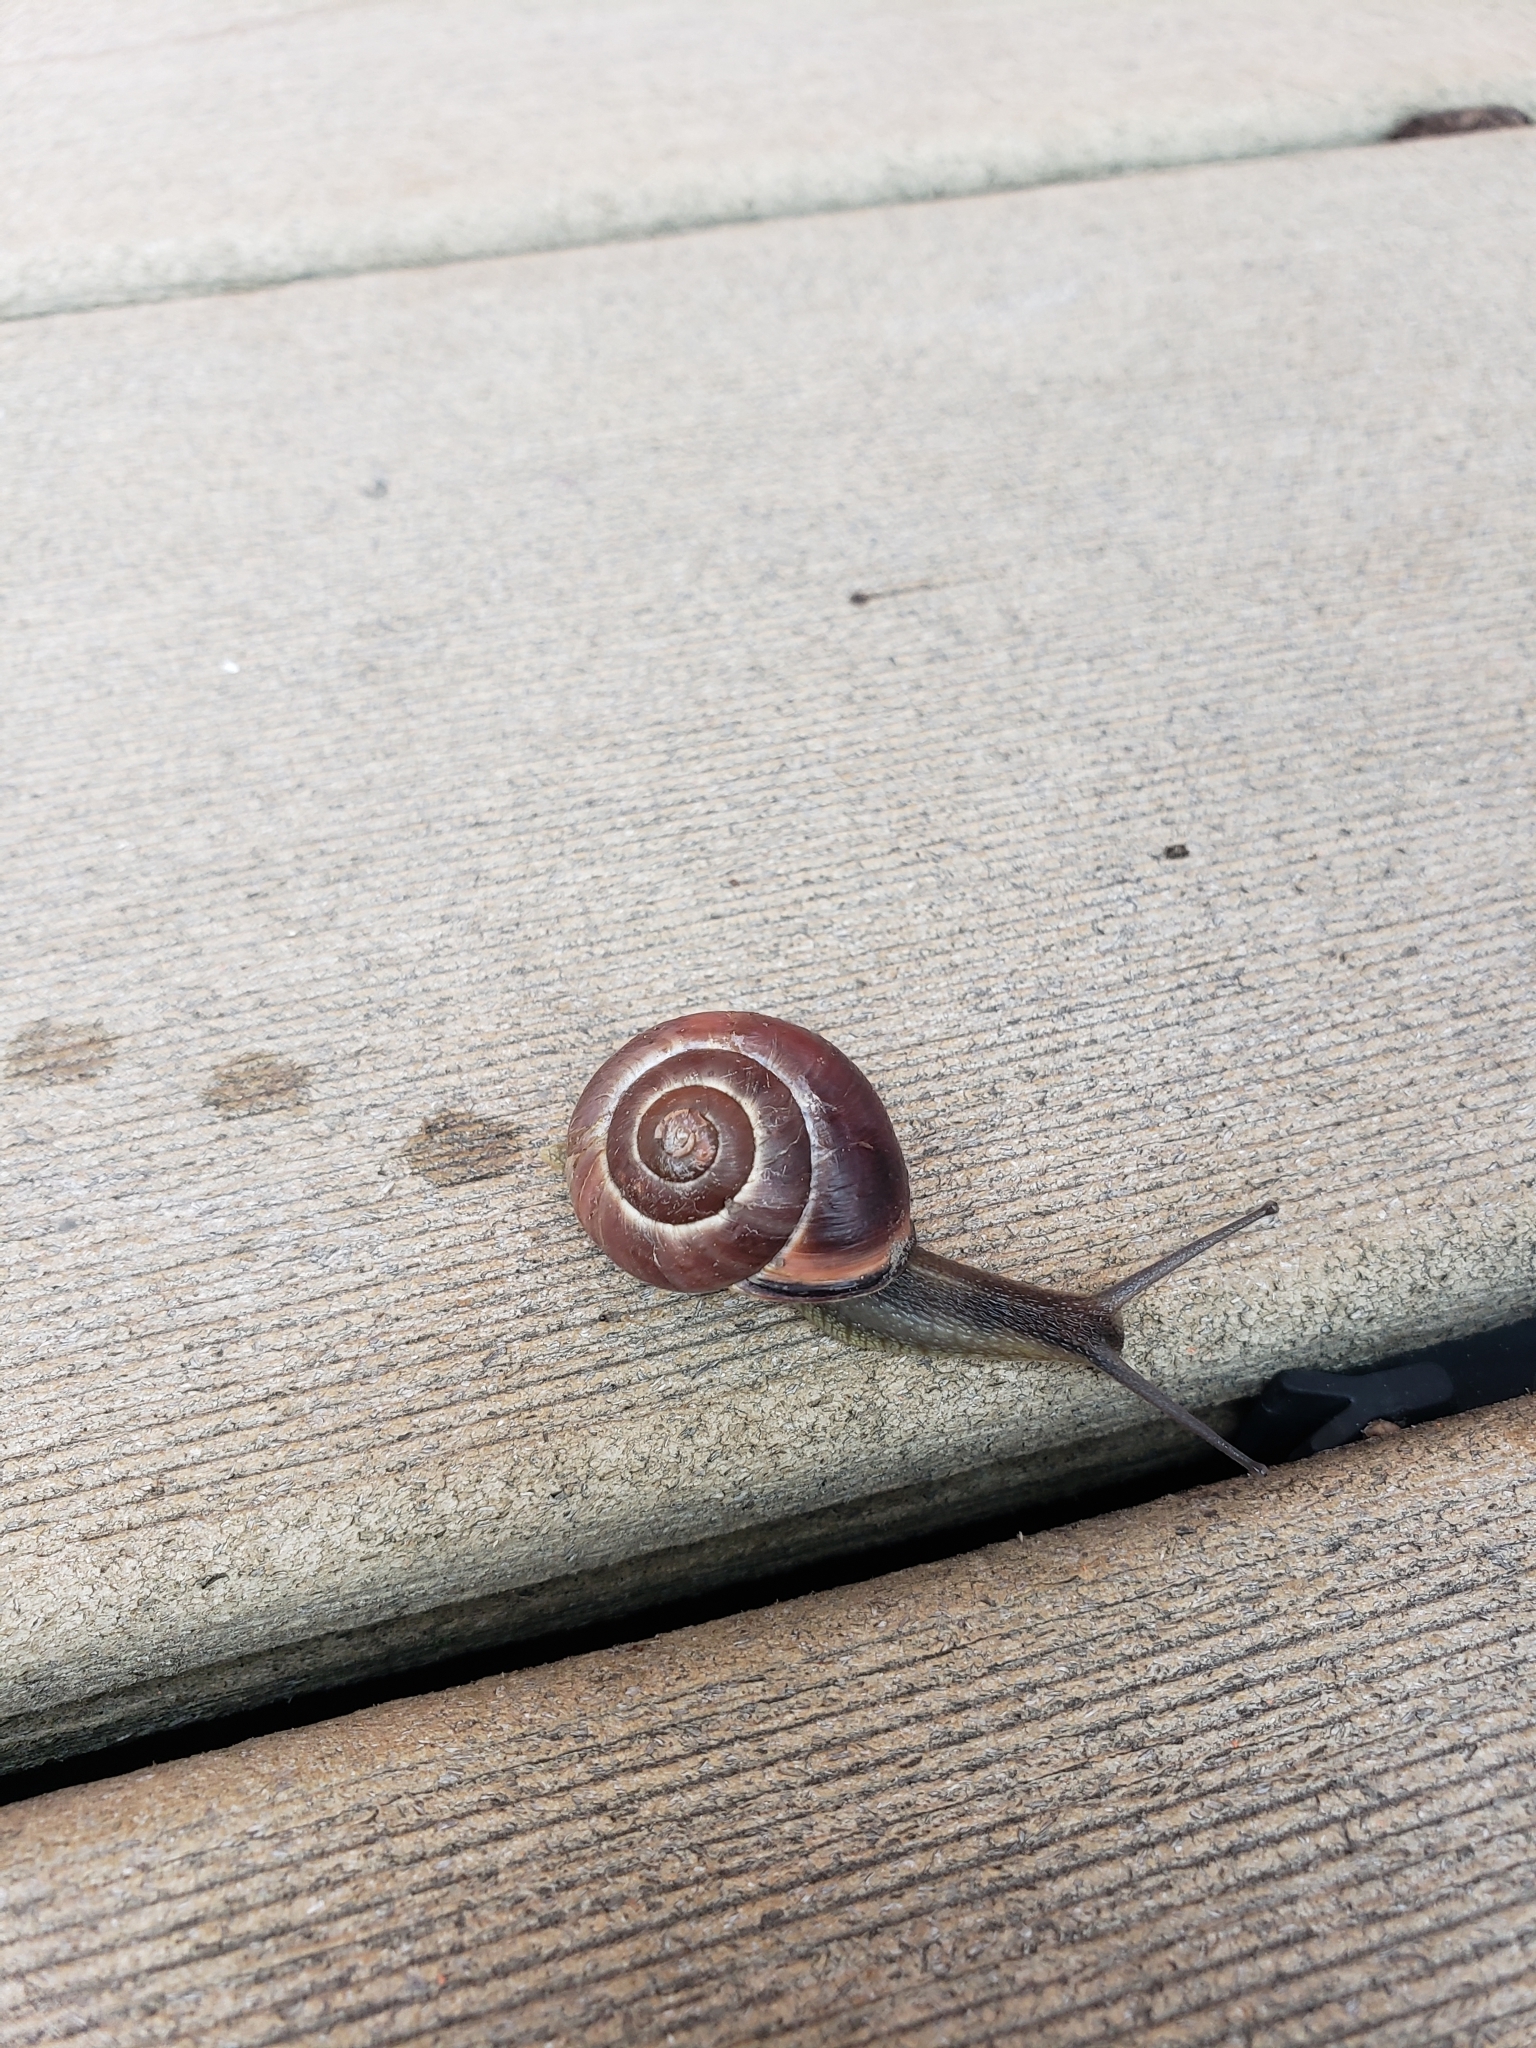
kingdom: Animalia
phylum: Mollusca
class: Gastropoda
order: Stylommatophora
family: Helicidae
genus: Cepaea
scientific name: Cepaea nemoralis
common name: Grovesnail
